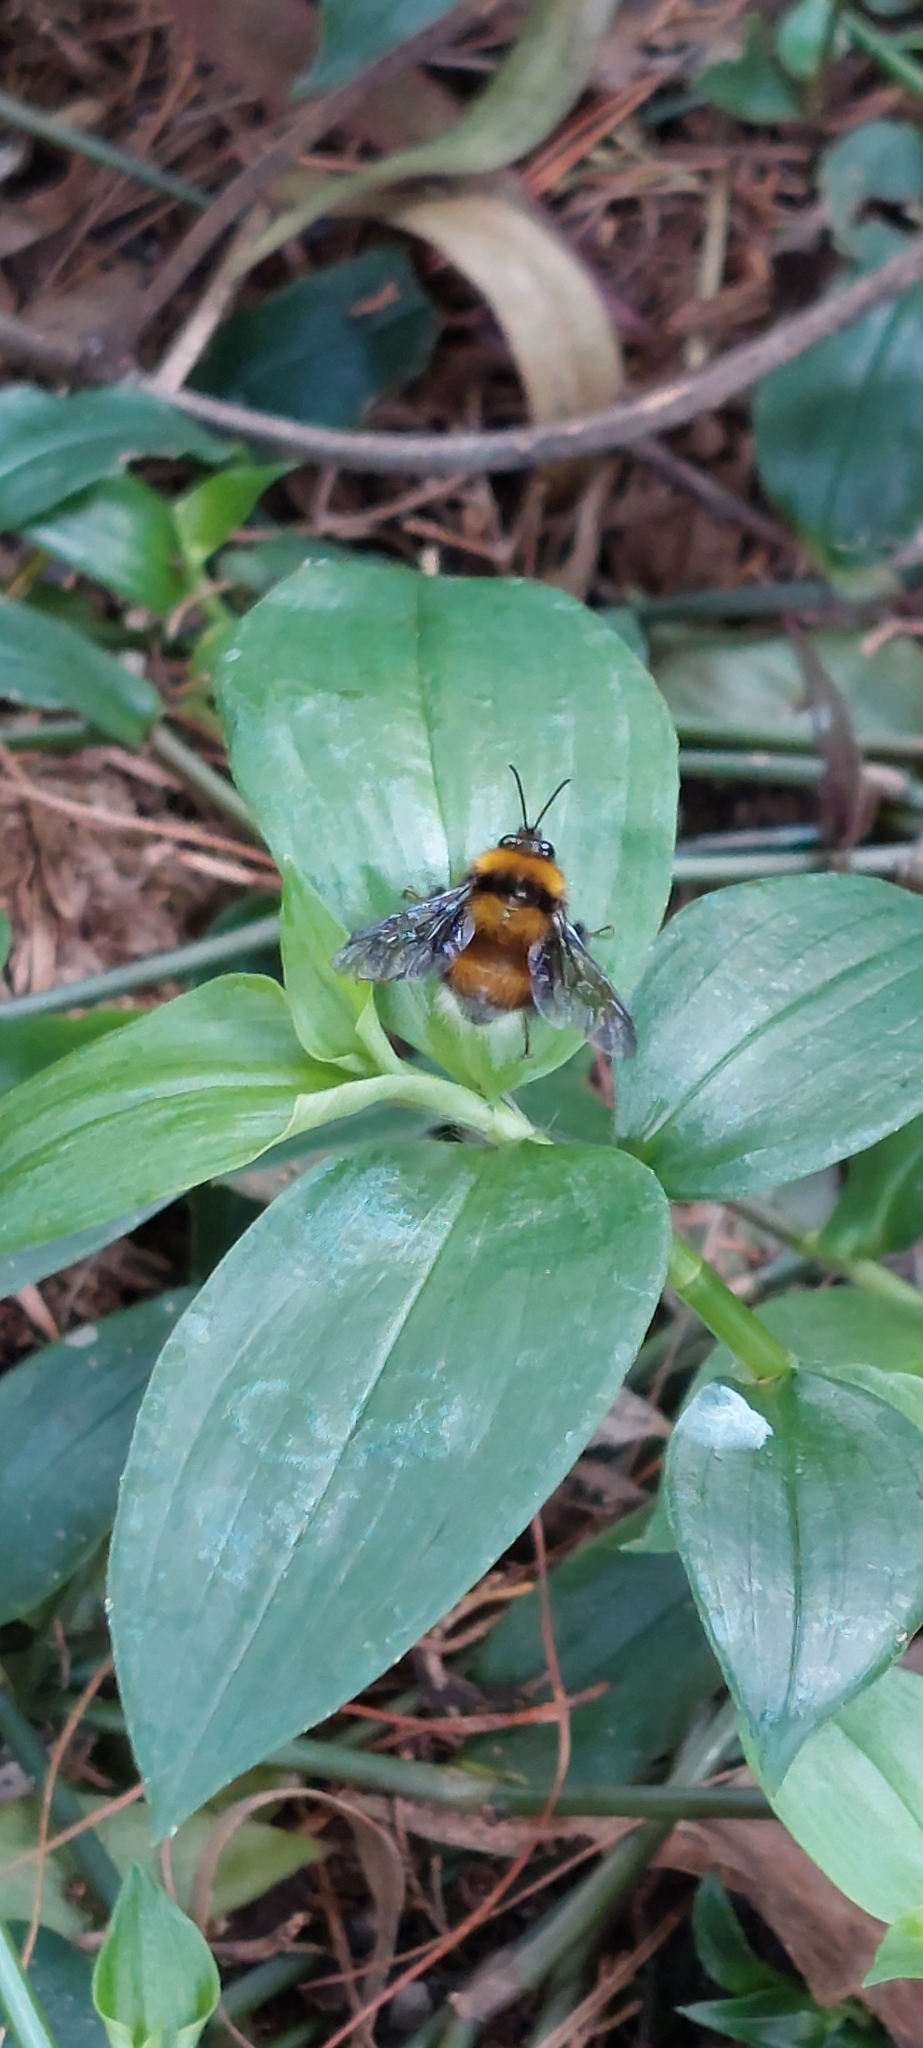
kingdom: Animalia
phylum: Arthropoda
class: Insecta
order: Hymenoptera
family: Apidae
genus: Bombus
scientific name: Bombus hortulanus
